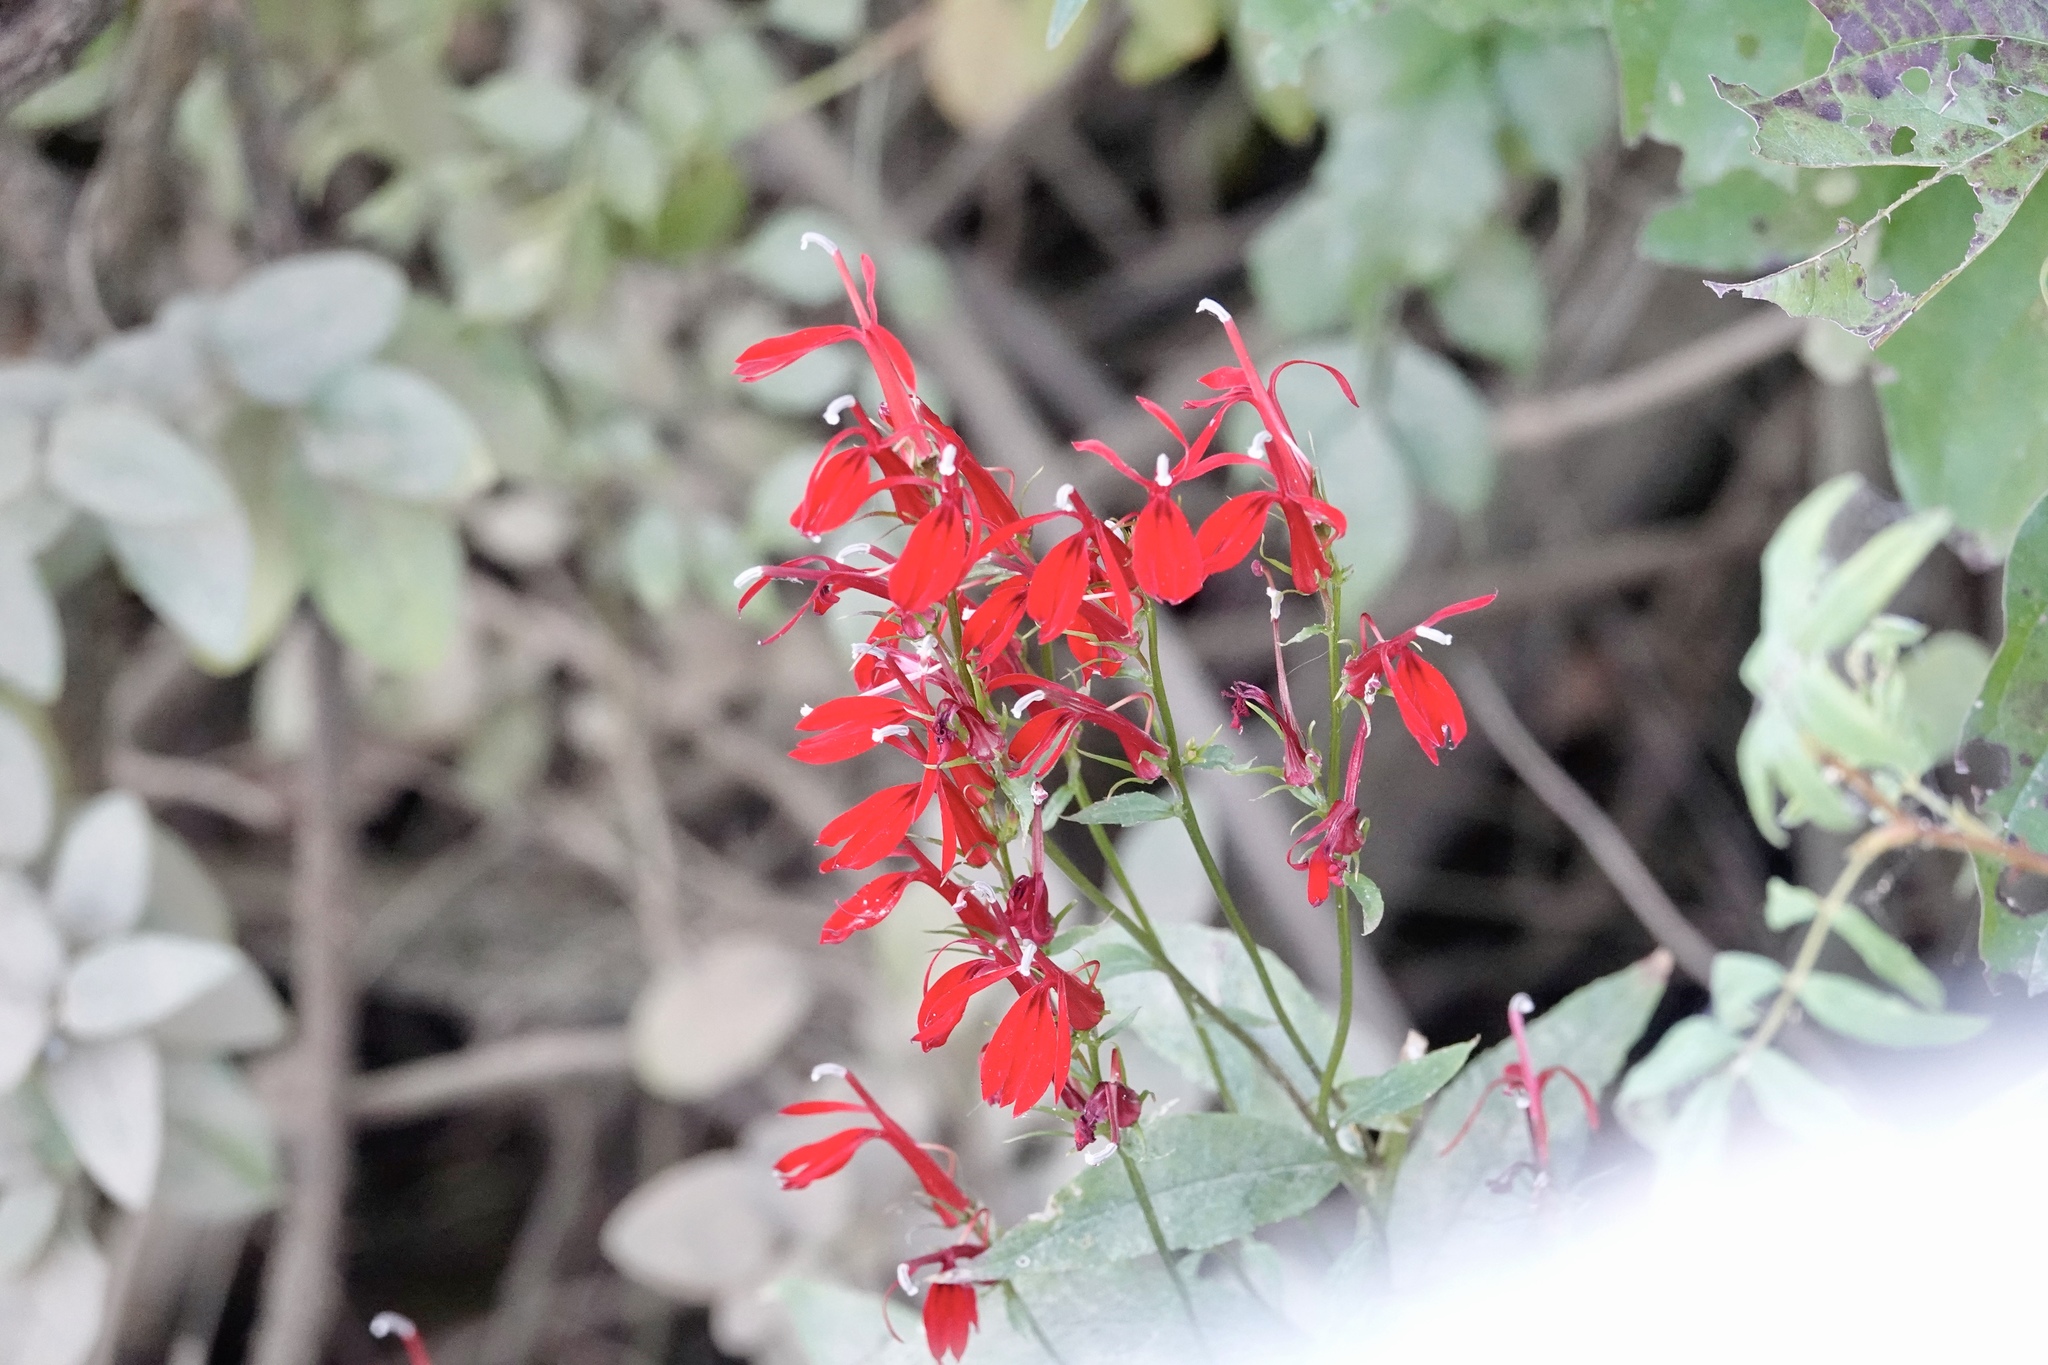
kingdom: Plantae
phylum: Tracheophyta
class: Magnoliopsida
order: Asterales
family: Campanulaceae
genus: Lobelia
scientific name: Lobelia cardinalis
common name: Cardinal flower
